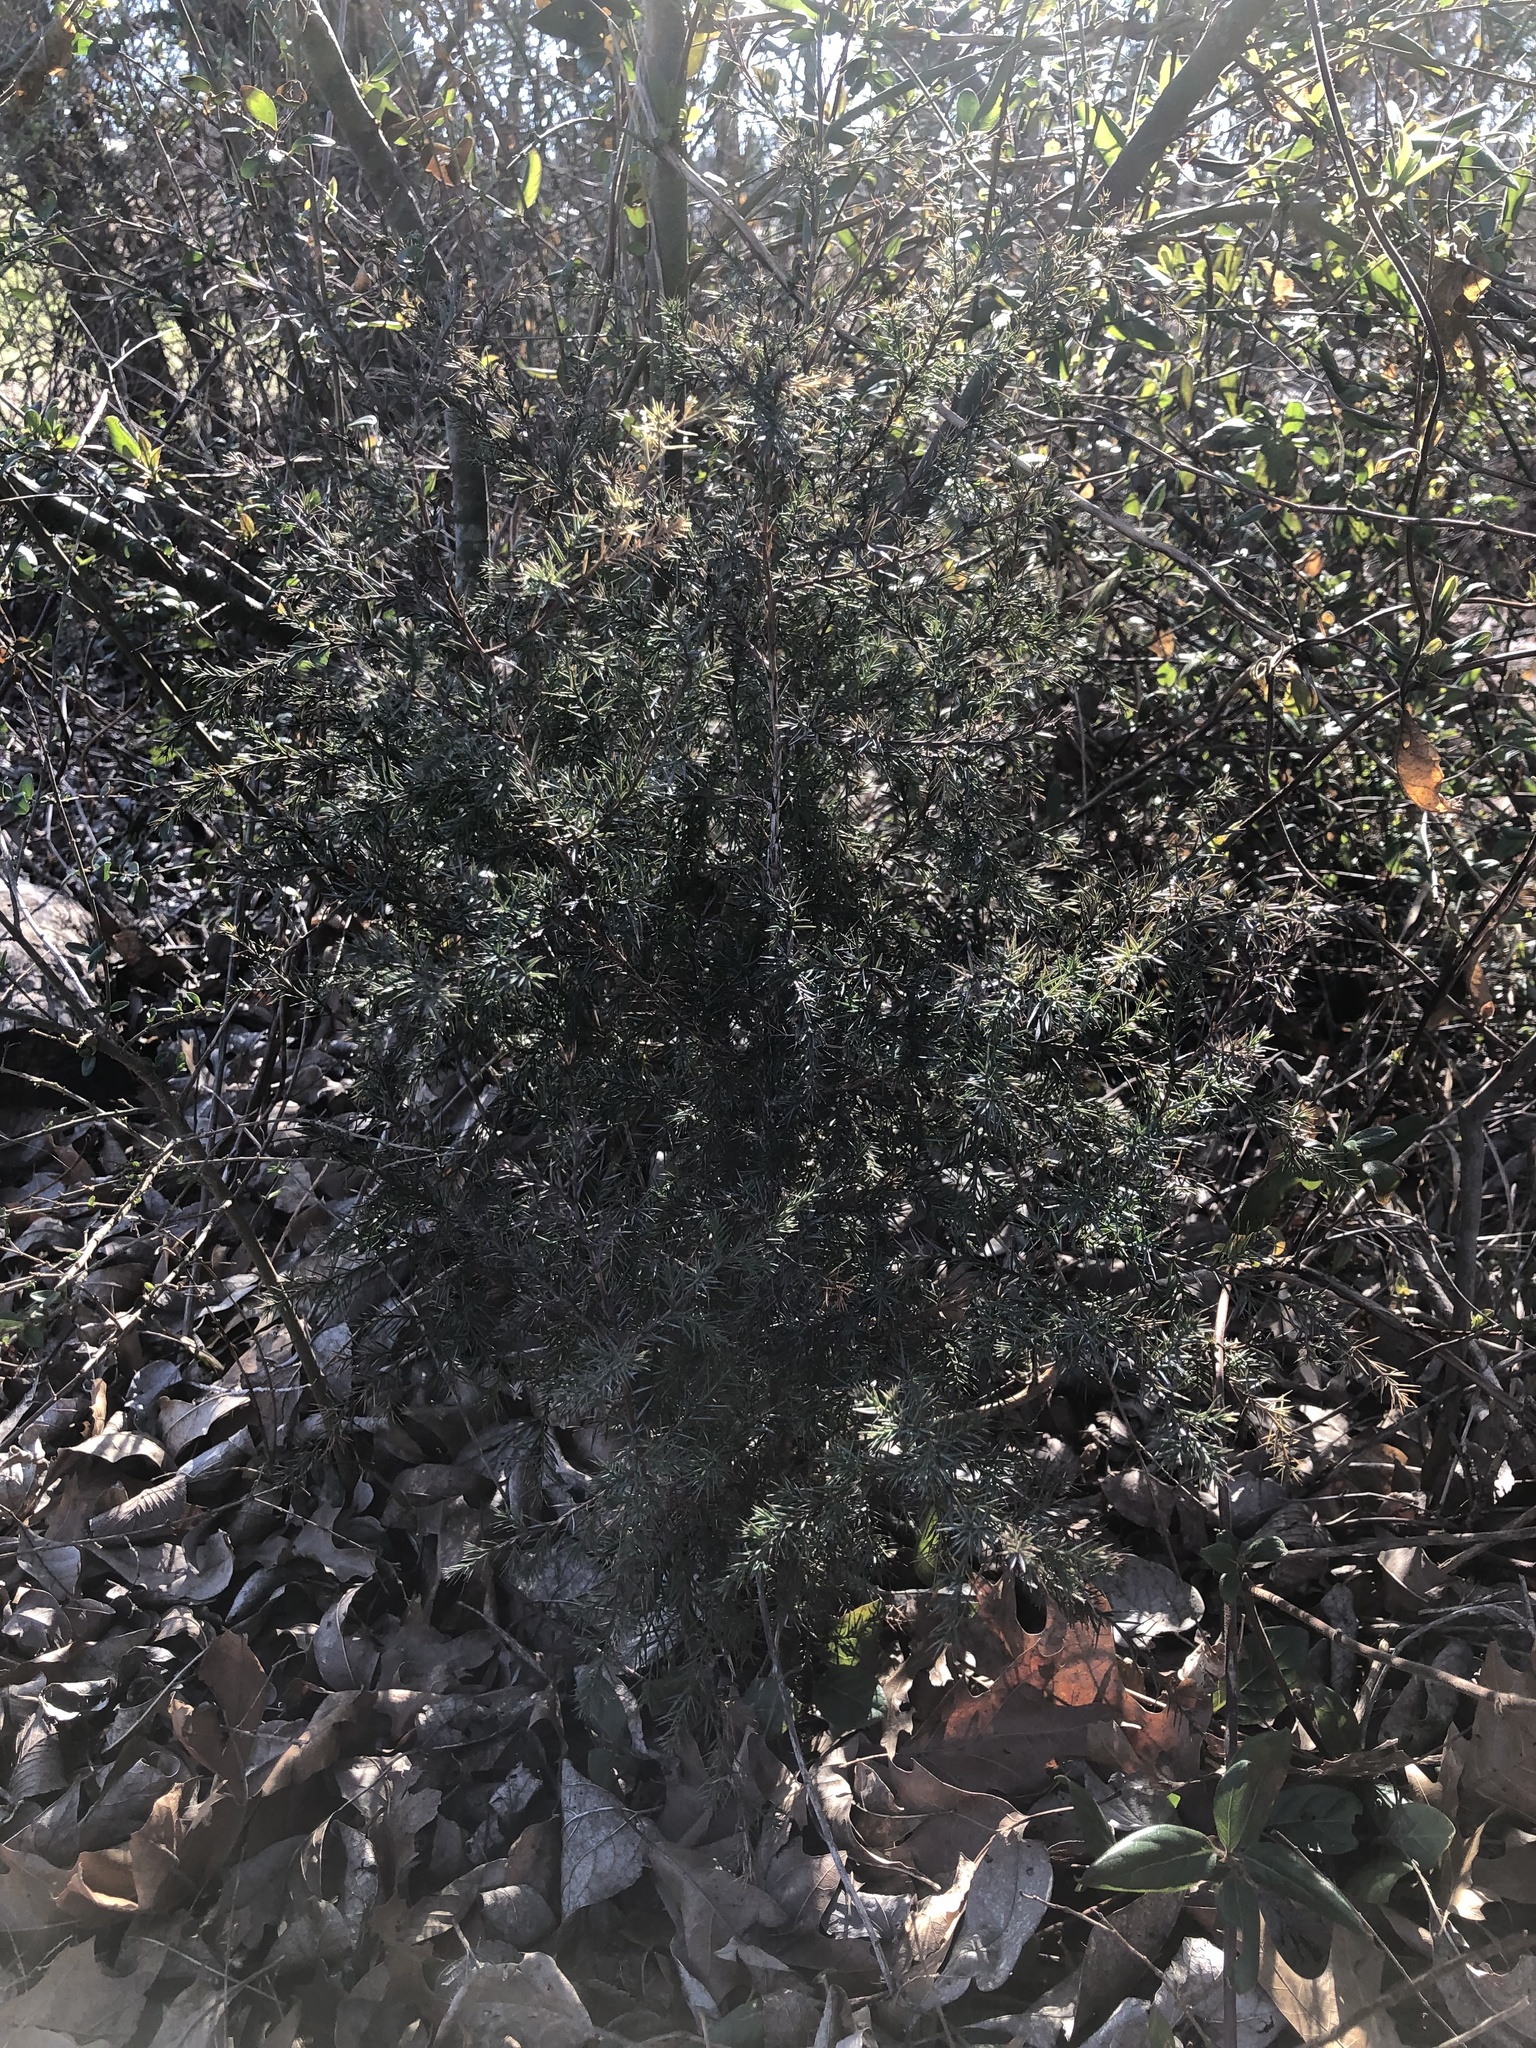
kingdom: Plantae
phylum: Tracheophyta
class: Pinopsida
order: Pinales
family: Cupressaceae
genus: Juniperus
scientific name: Juniperus virginiana
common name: Red juniper
